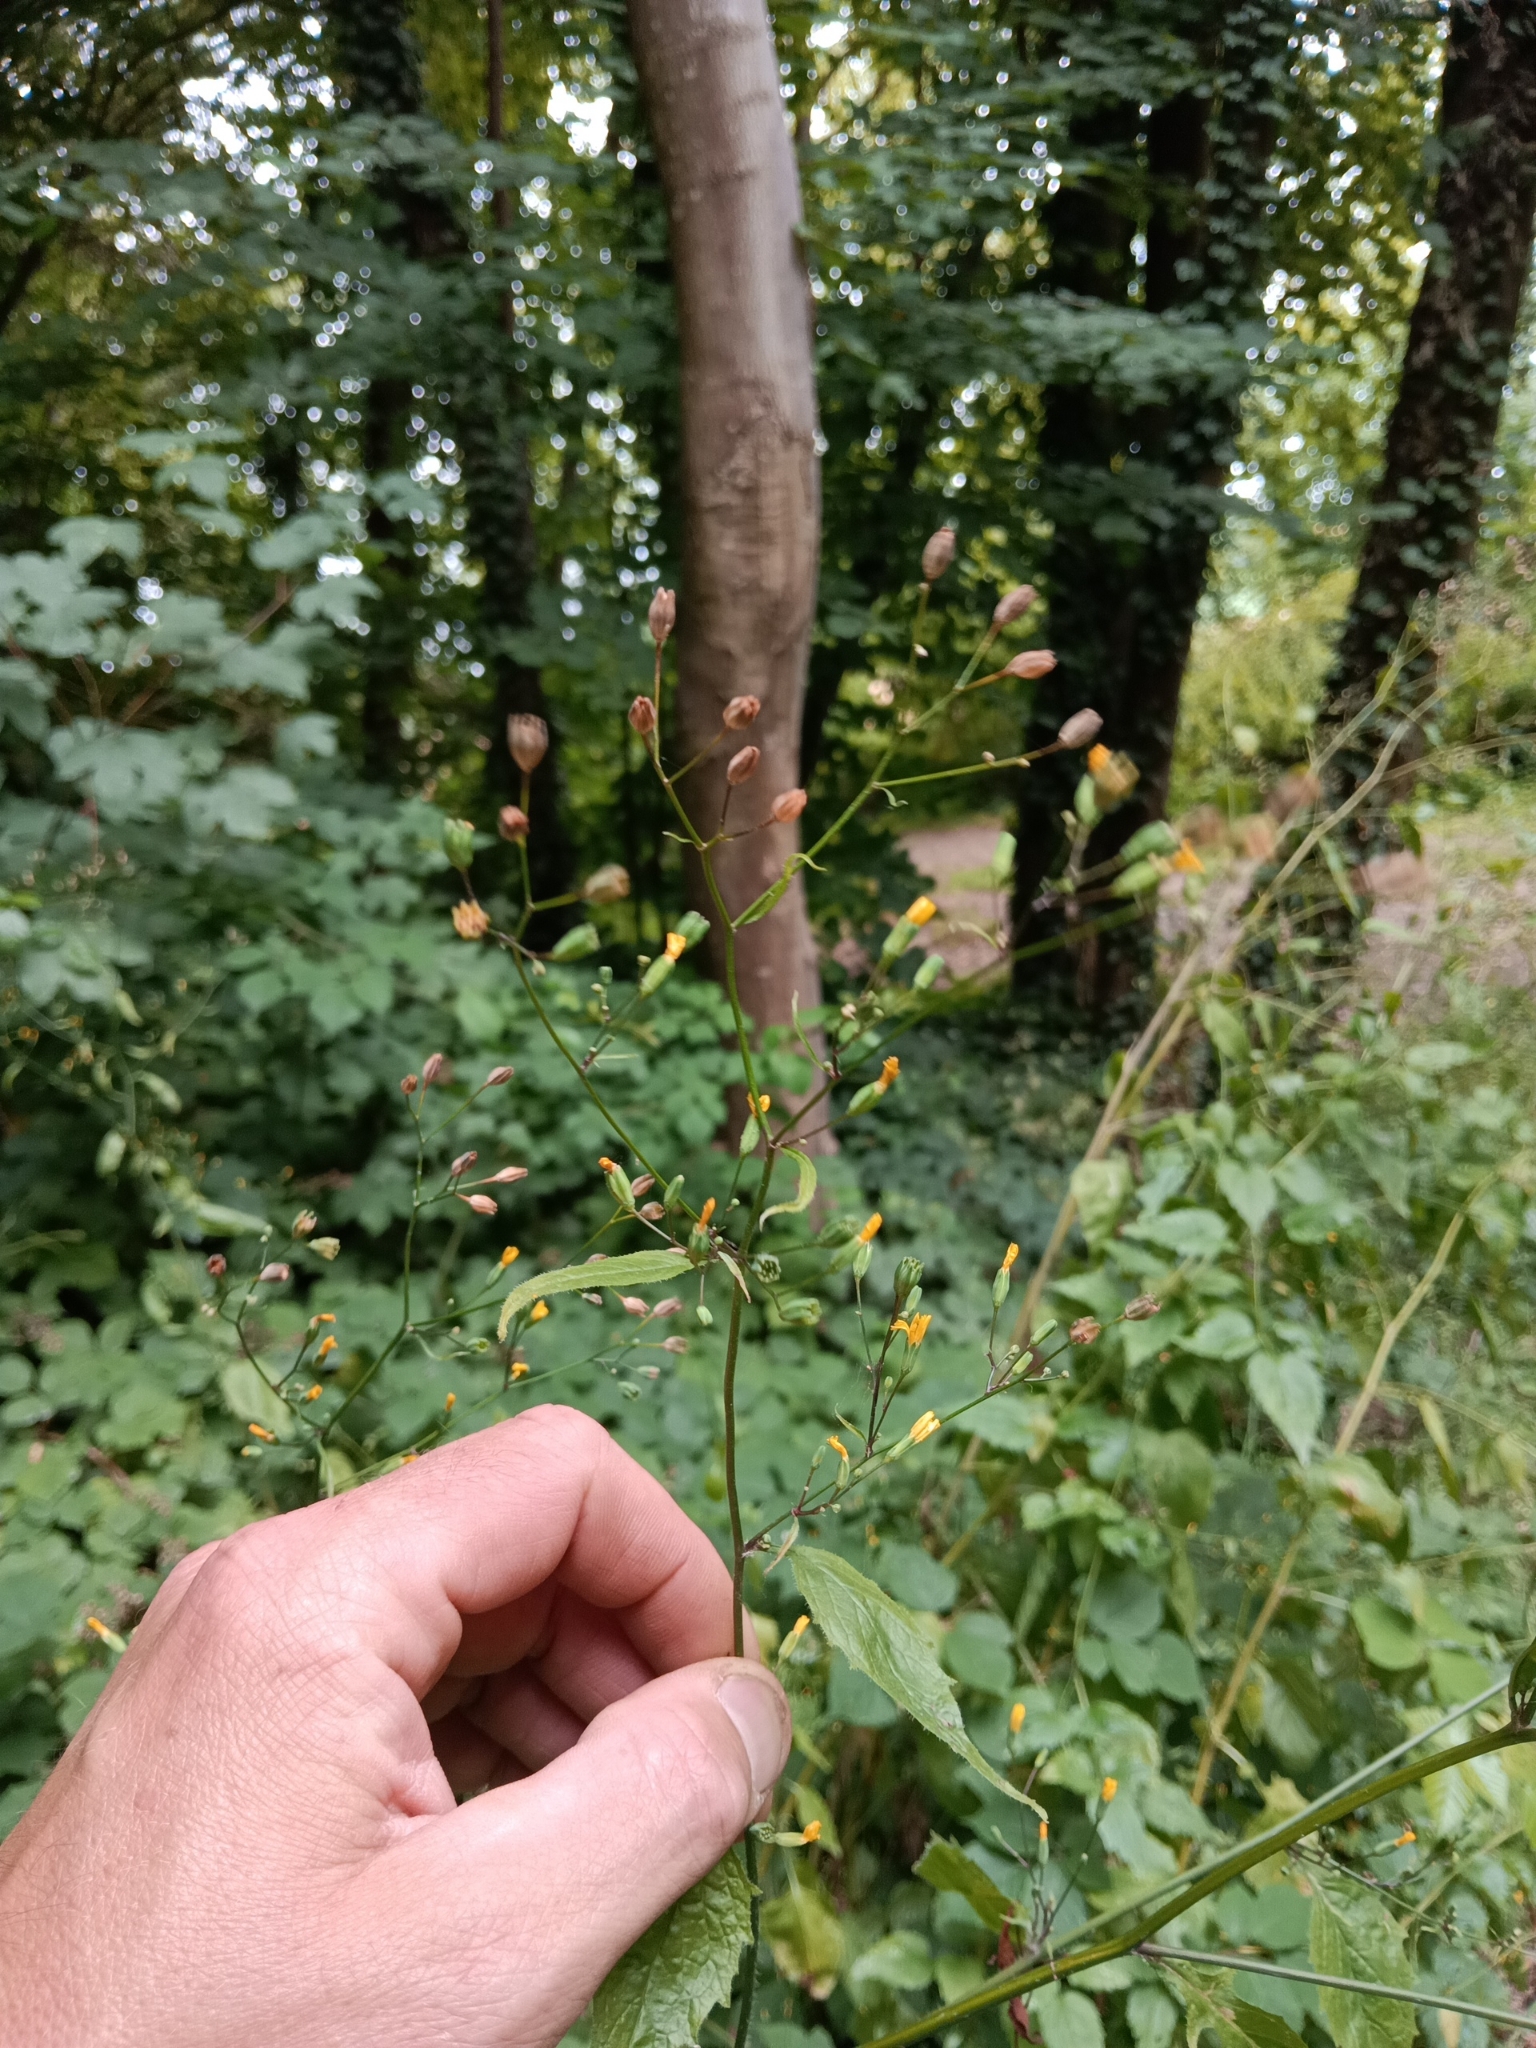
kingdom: Plantae
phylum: Tracheophyta
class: Magnoliopsida
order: Asterales
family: Asteraceae
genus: Lapsana
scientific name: Lapsana communis
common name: Nipplewort
